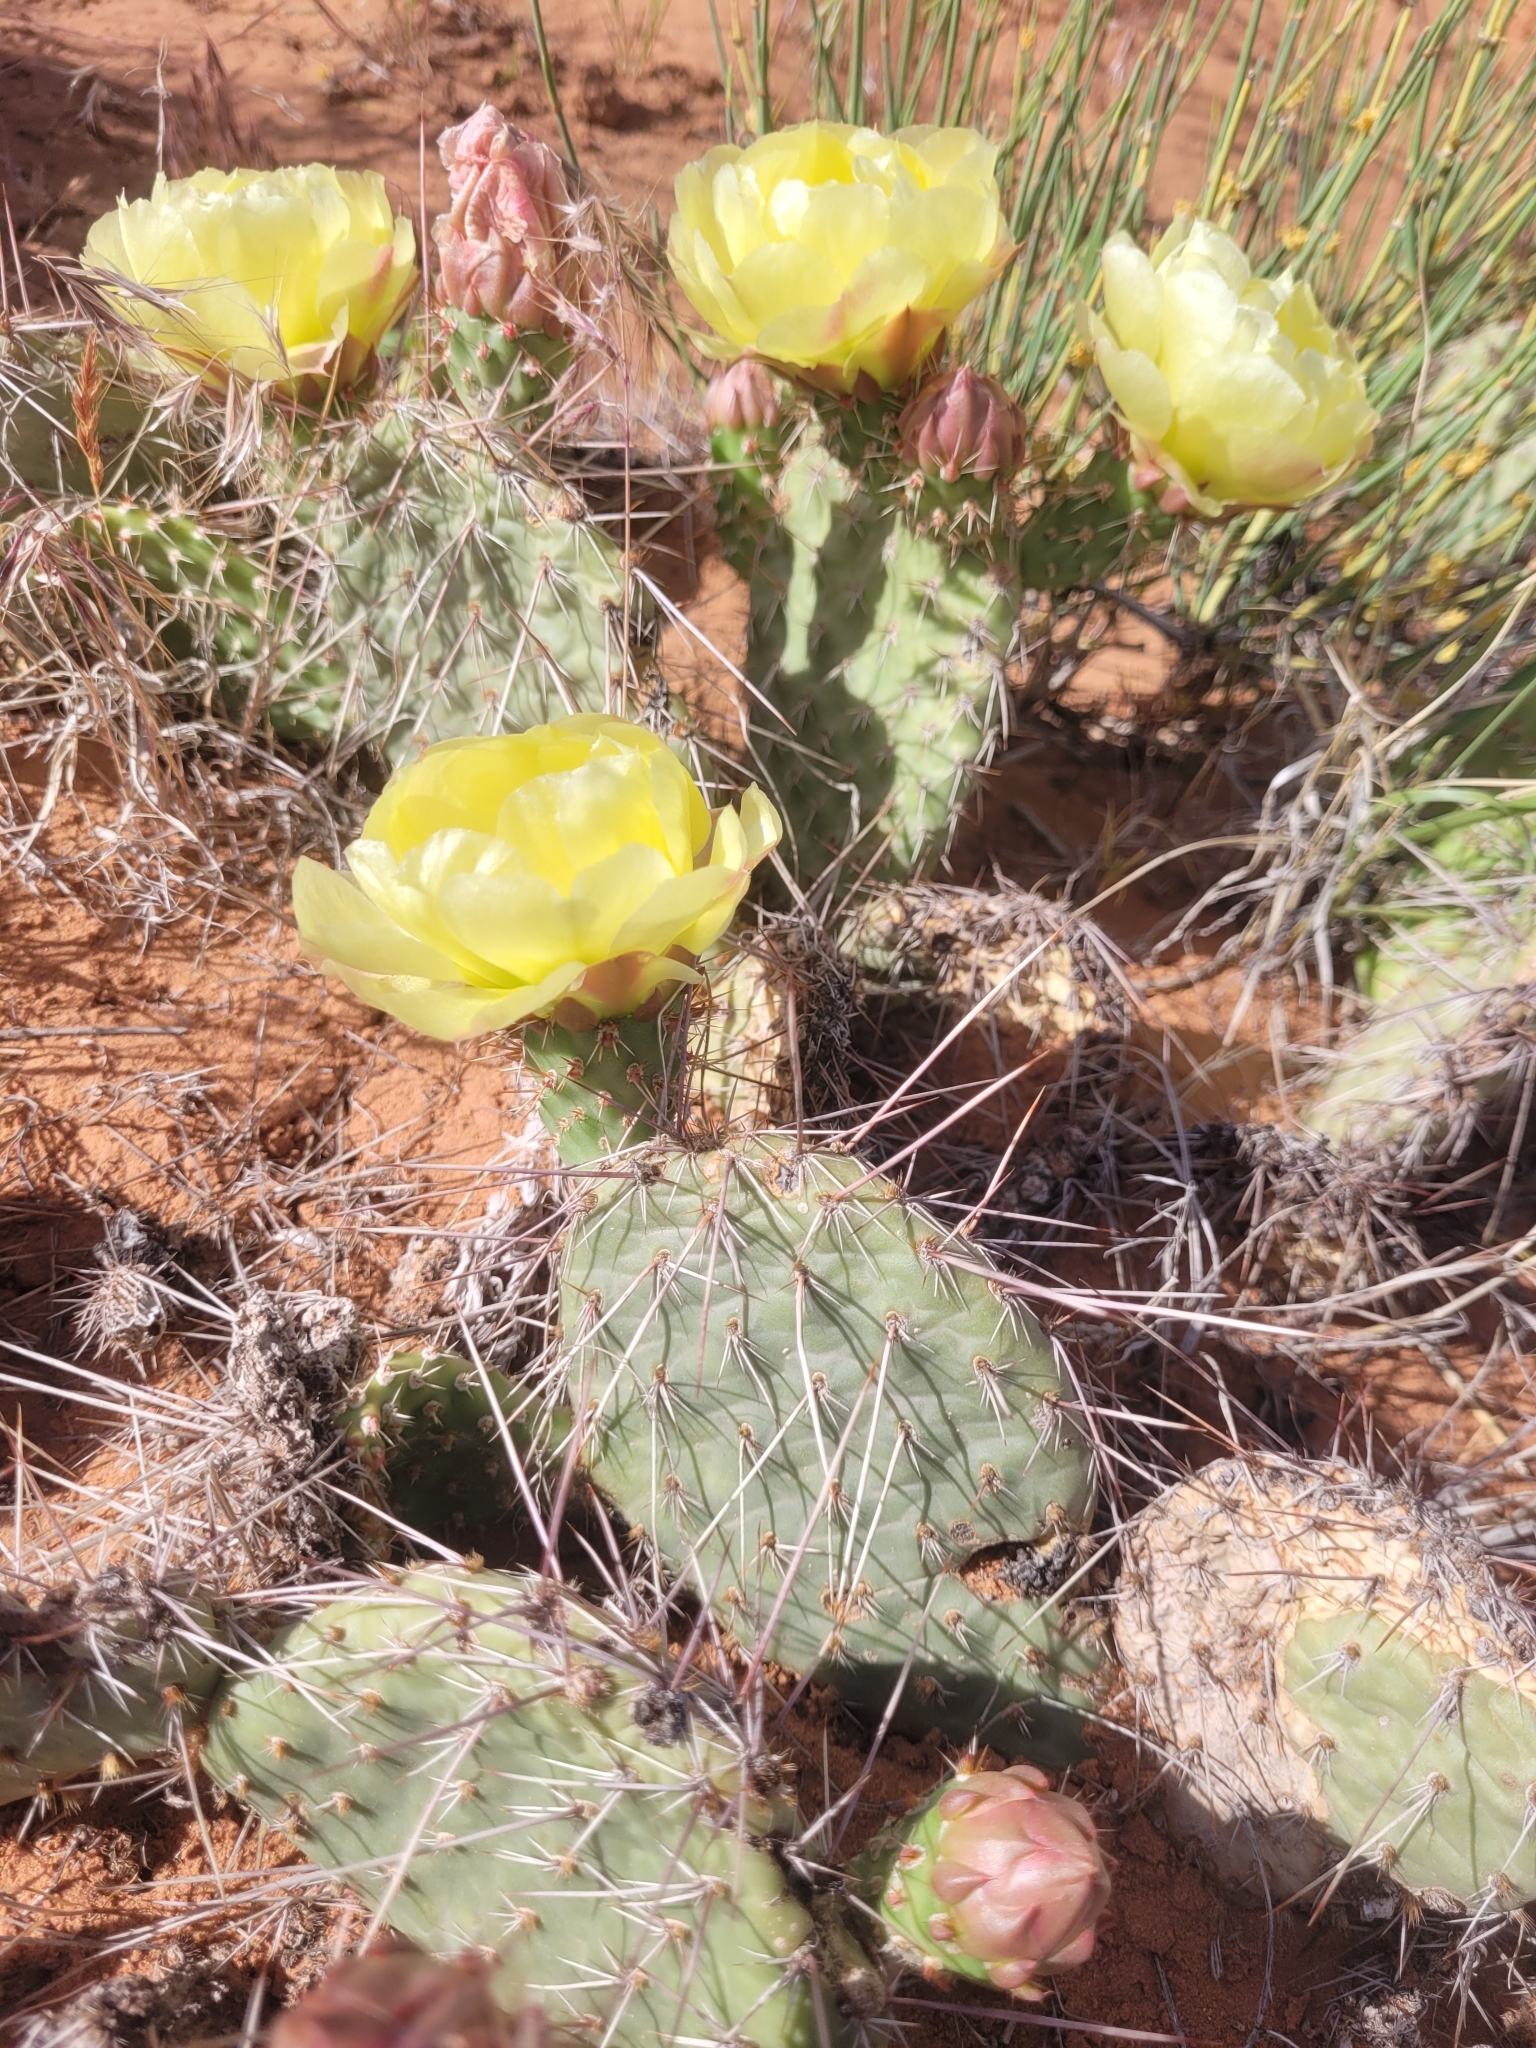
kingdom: Plantae
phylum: Tracheophyta
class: Magnoliopsida
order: Caryophyllales
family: Cactaceae
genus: Opuntia
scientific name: Opuntia polyacantha
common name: Plains prickly-pear
